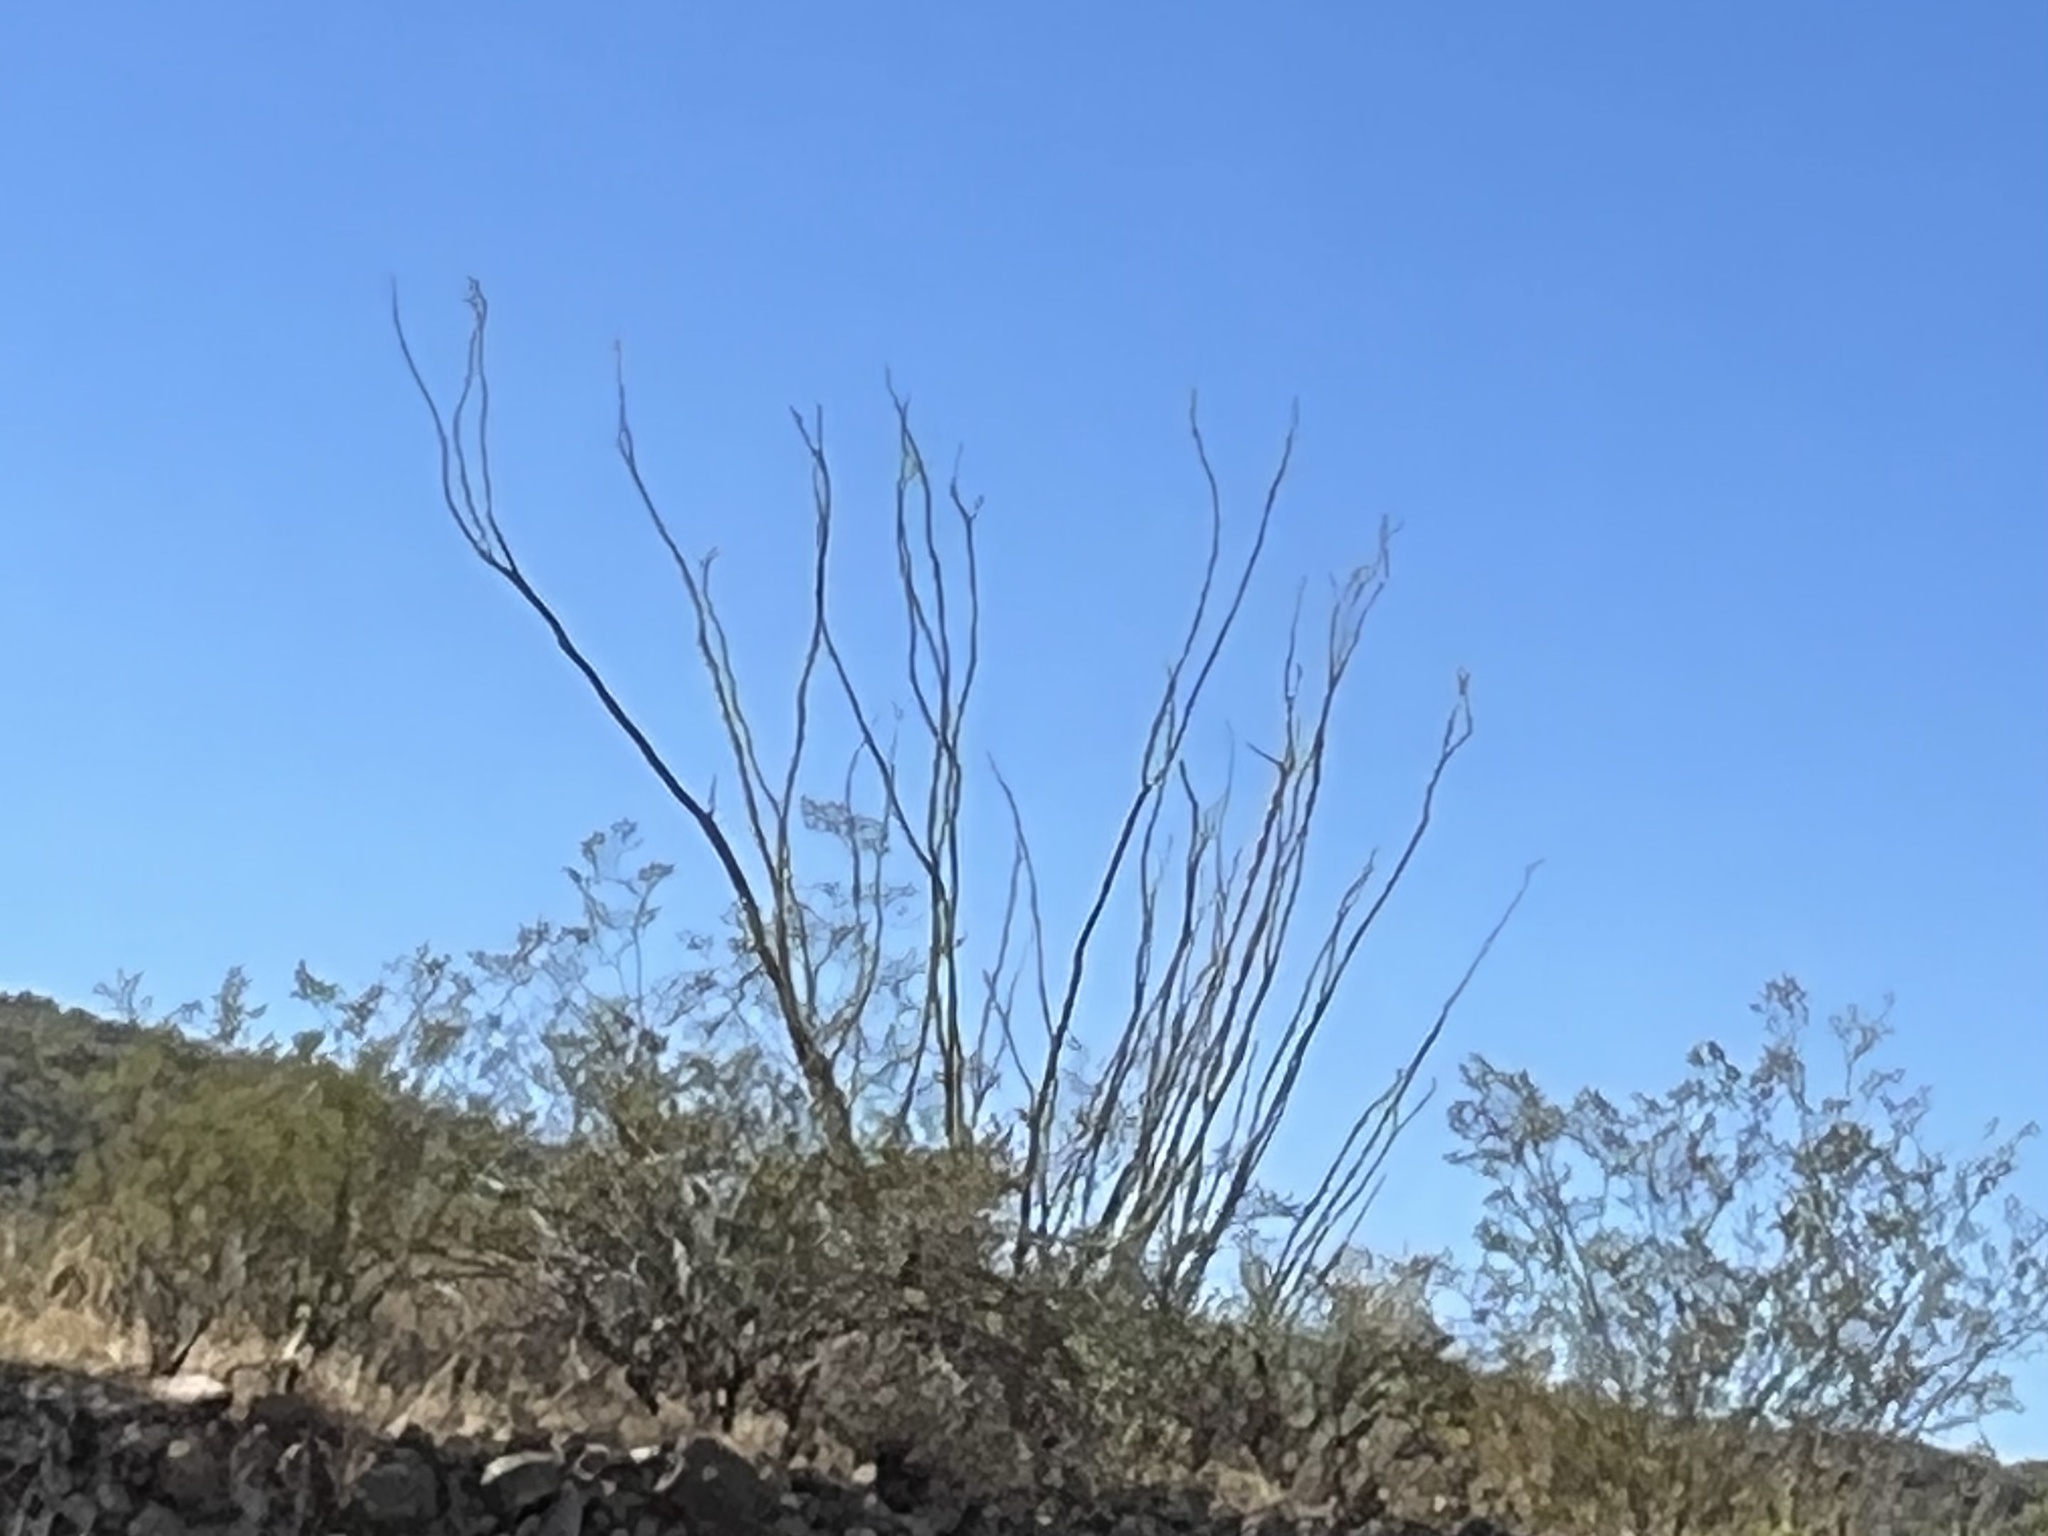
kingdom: Plantae
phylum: Tracheophyta
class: Magnoliopsida
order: Ericales
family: Fouquieriaceae
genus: Fouquieria
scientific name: Fouquieria splendens
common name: Vine-cactus
